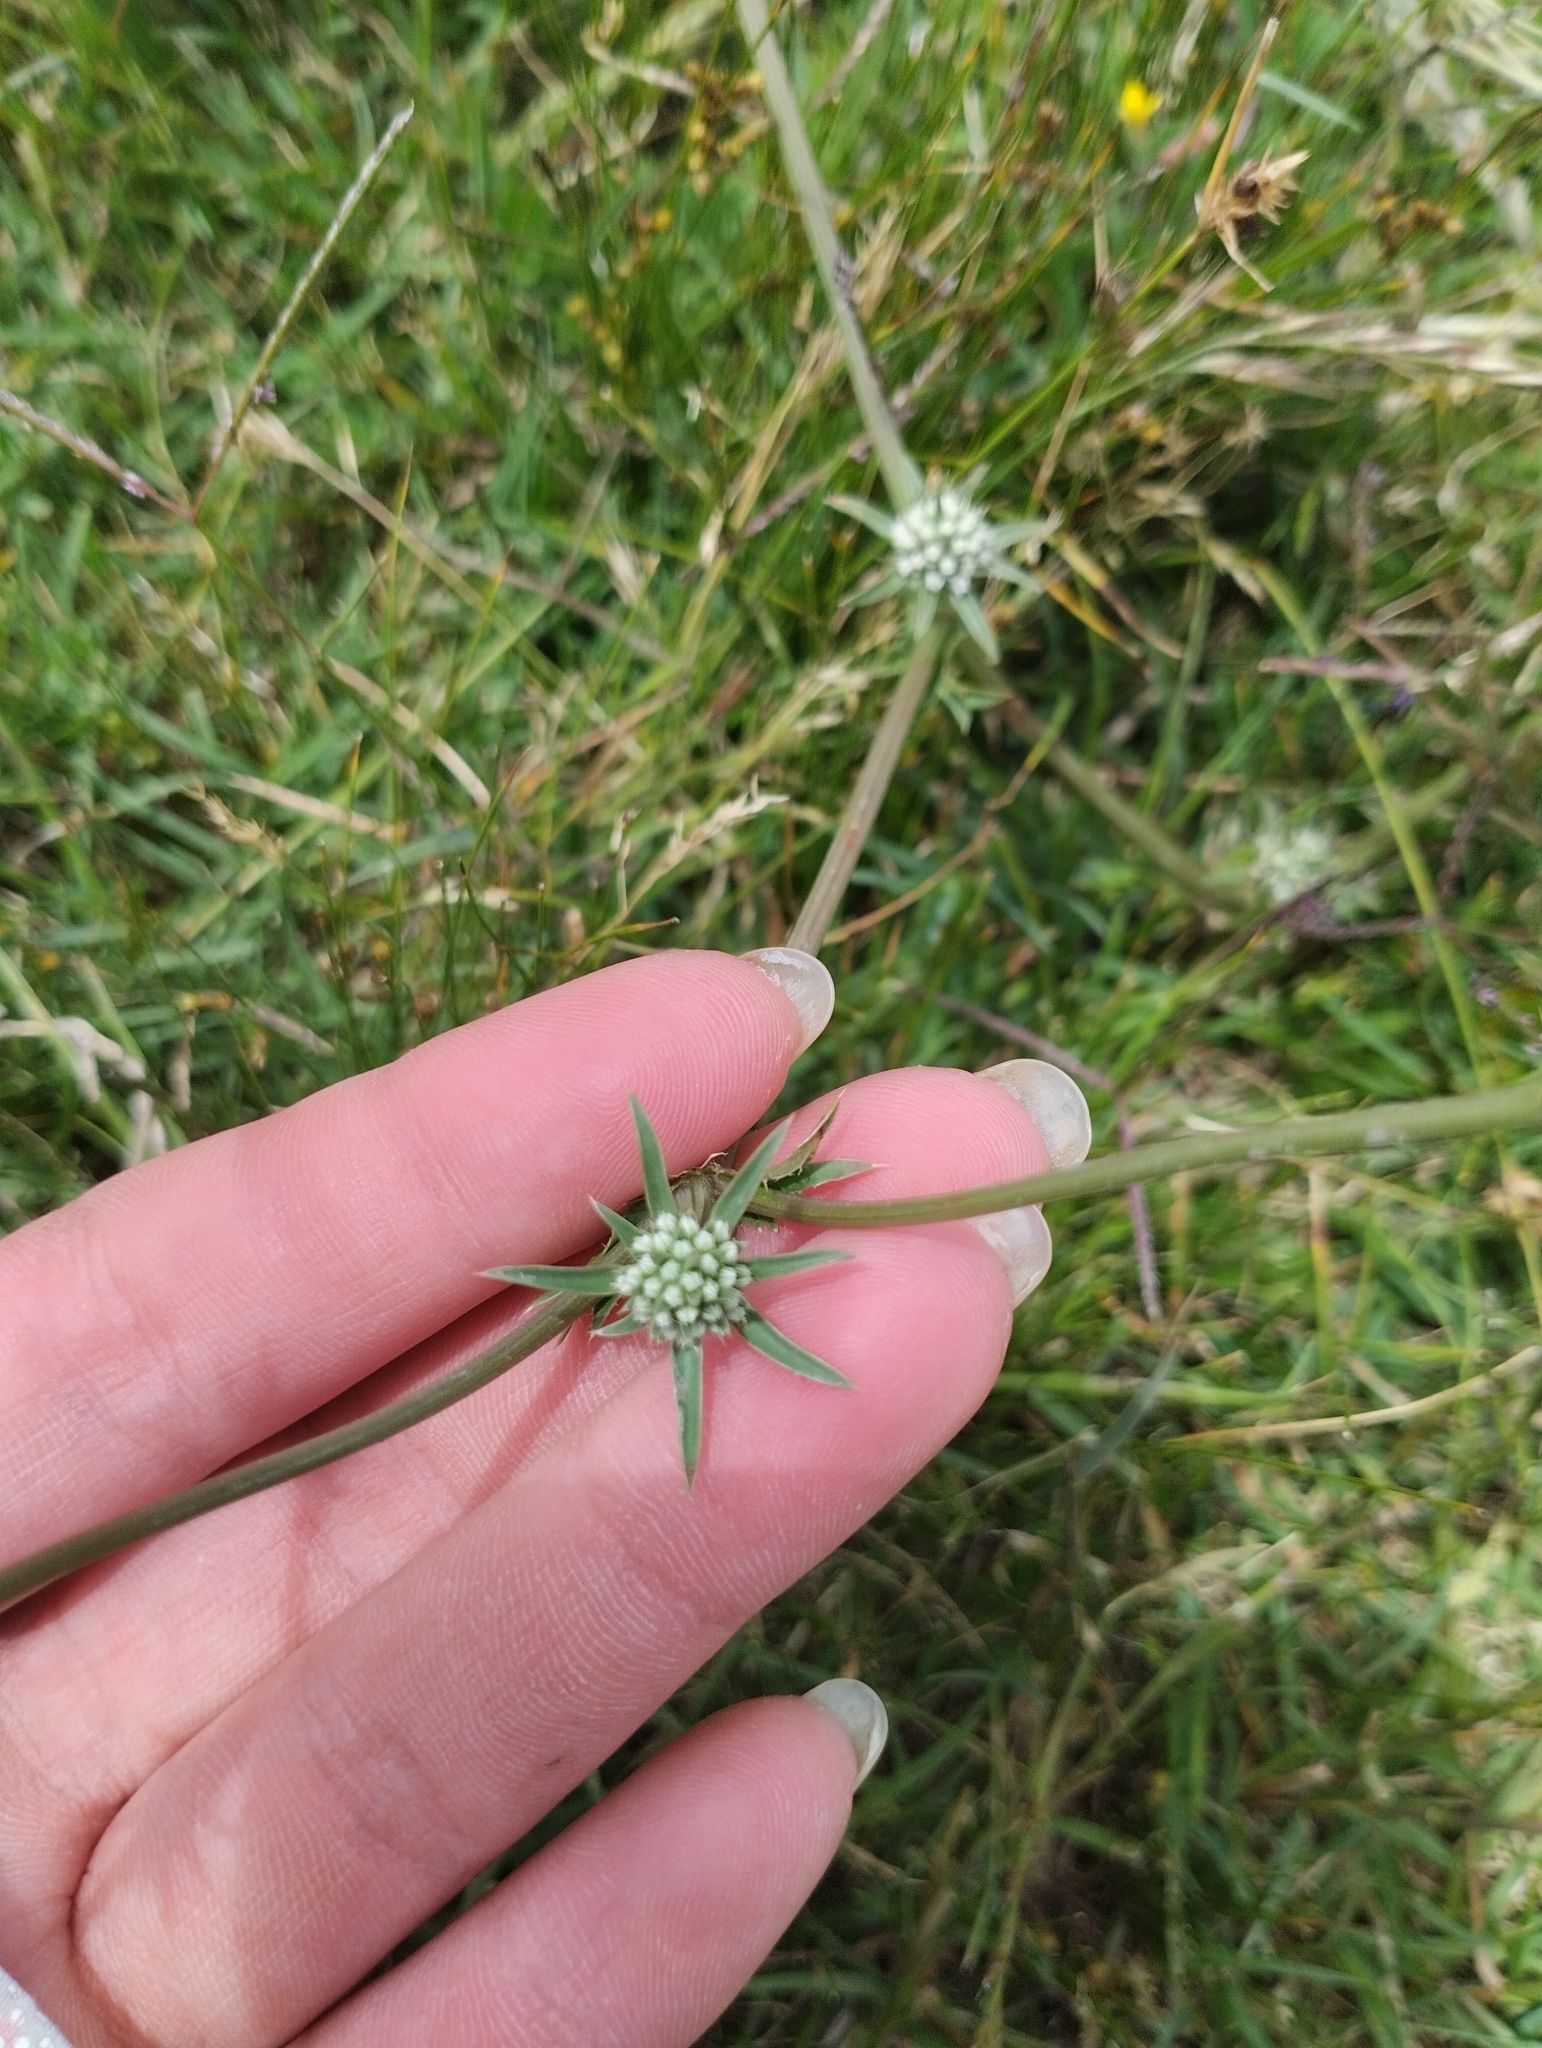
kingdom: Plantae
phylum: Tracheophyta
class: Magnoliopsida
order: Apiales
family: Apiaceae
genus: Eryngium
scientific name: Eryngium echinatum
